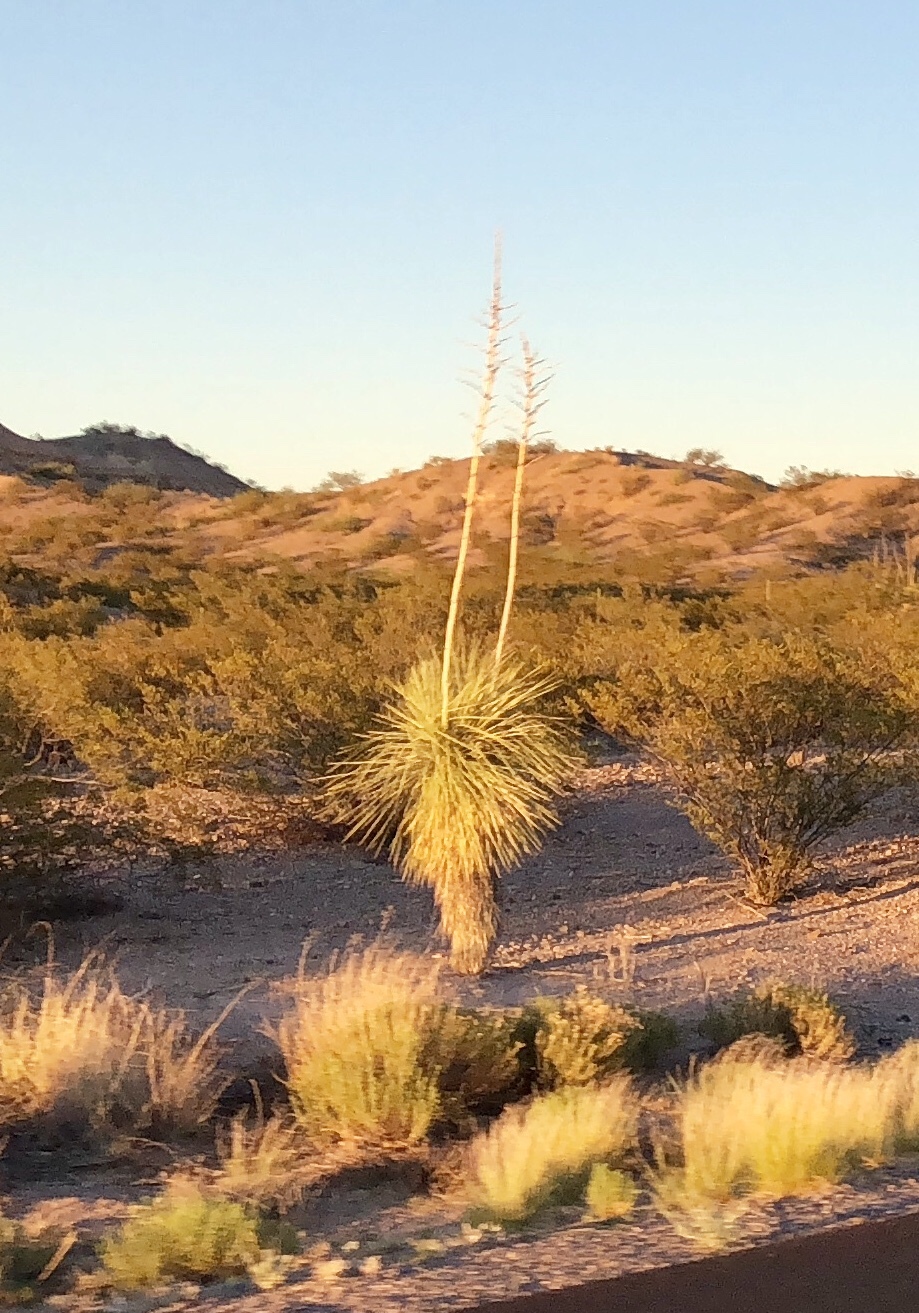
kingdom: Plantae
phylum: Tracheophyta
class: Liliopsida
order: Asparagales
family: Asparagaceae
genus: Yucca
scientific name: Yucca elata
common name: Palmella
